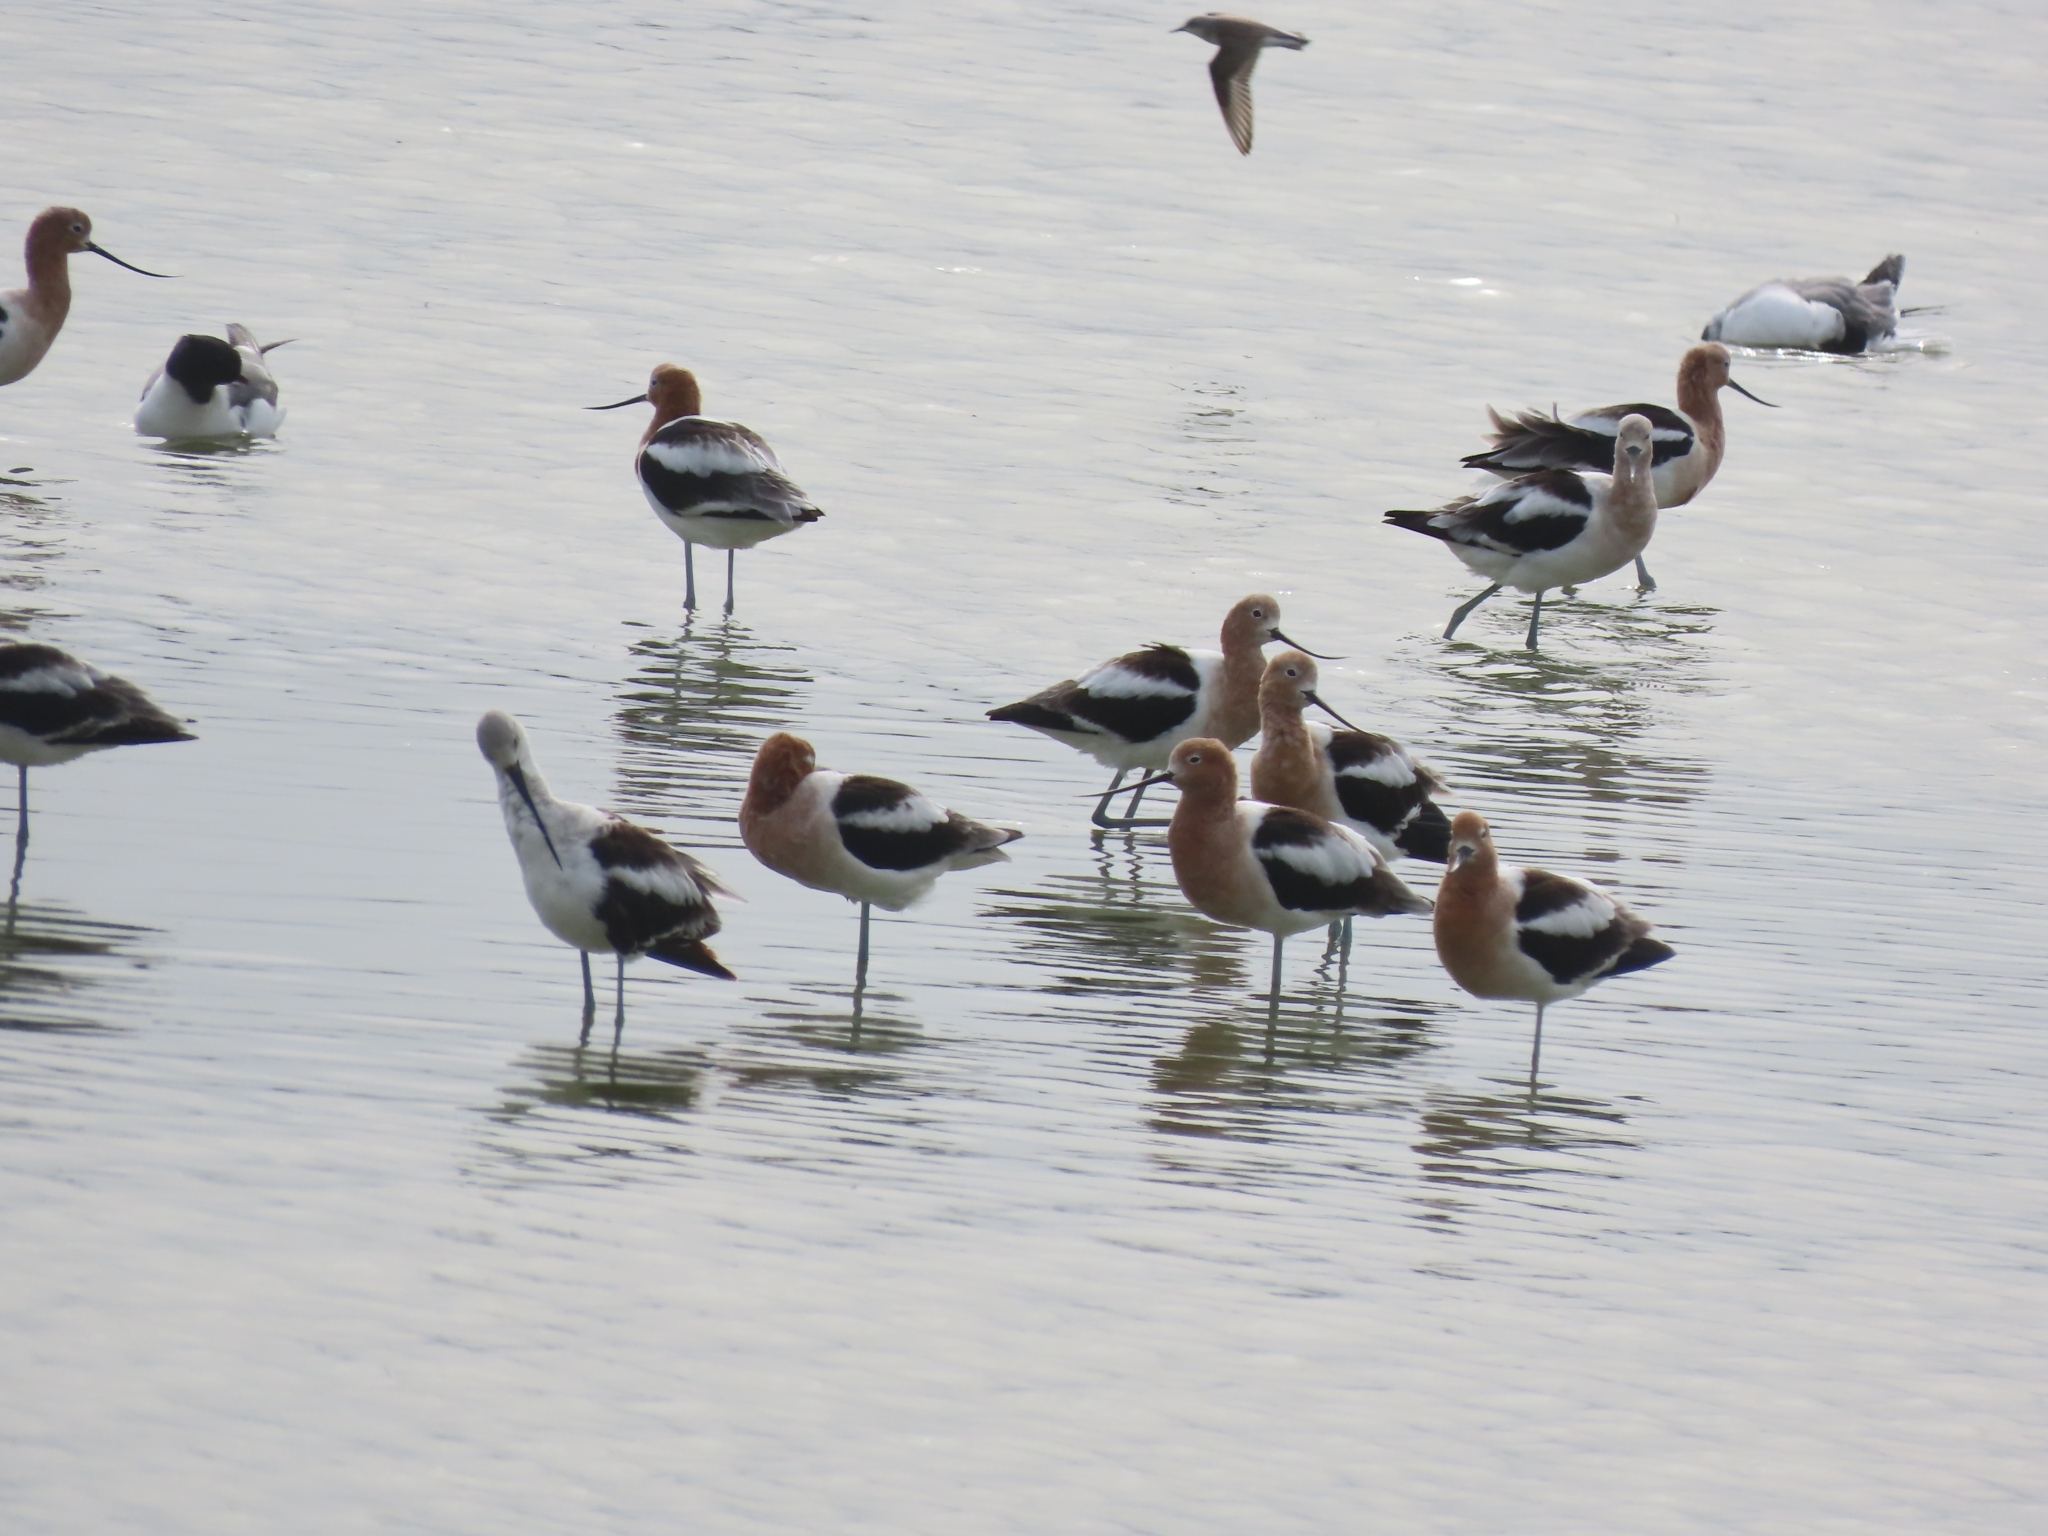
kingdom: Animalia
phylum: Chordata
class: Aves
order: Charadriiformes
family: Recurvirostridae
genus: Recurvirostra
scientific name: Recurvirostra americana
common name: American avocet
